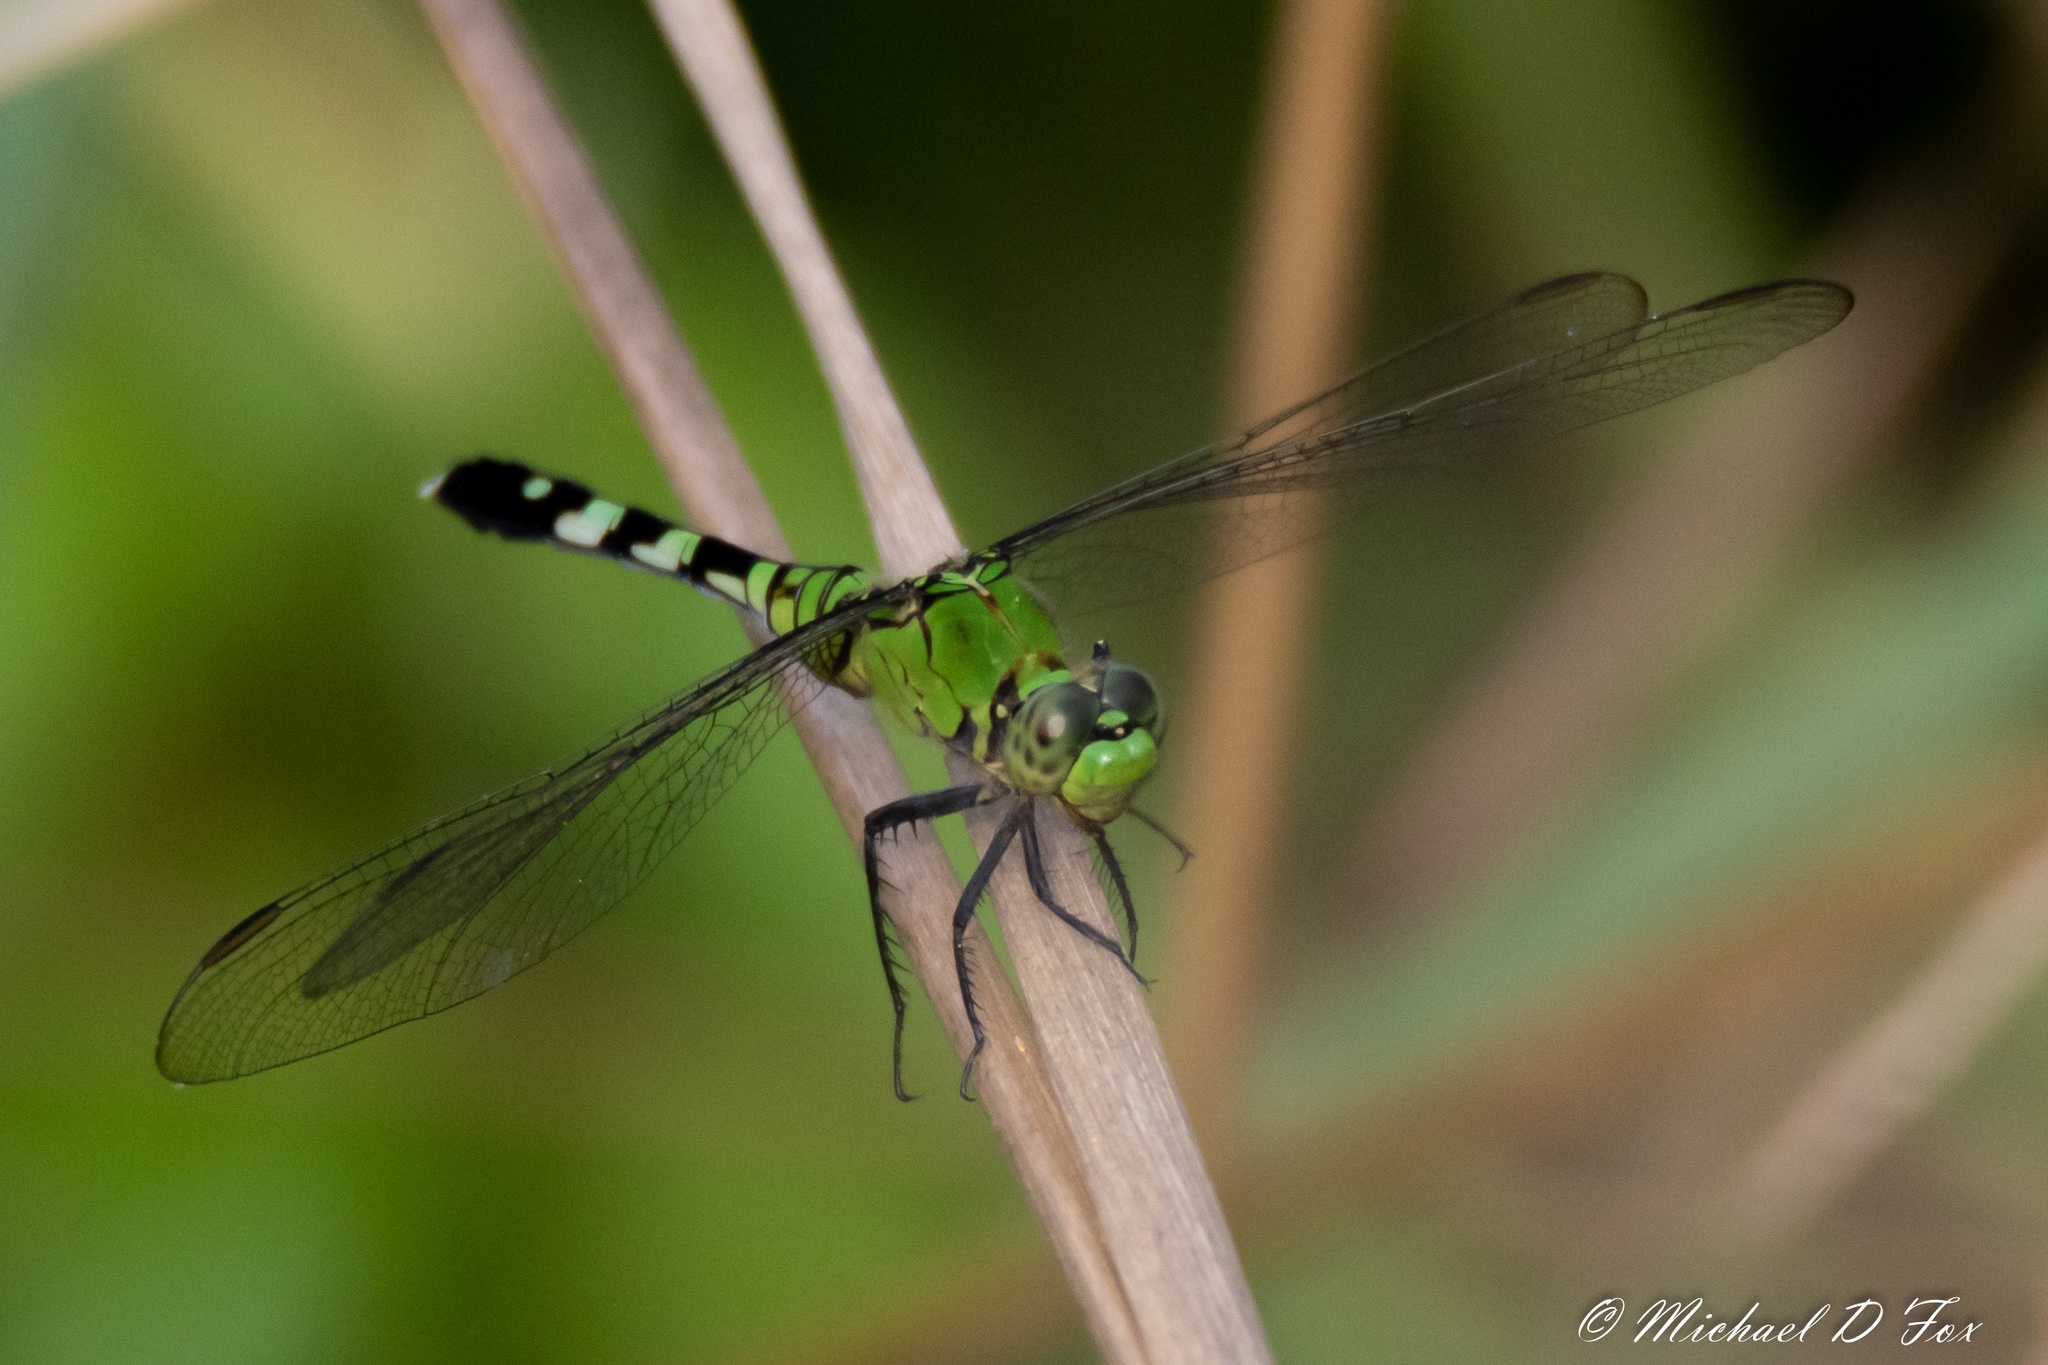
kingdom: Animalia
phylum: Arthropoda
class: Insecta
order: Odonata
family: Libellulidae
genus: Erythemis
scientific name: Erythemis simplicicollis
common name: Eastern pondhawk
